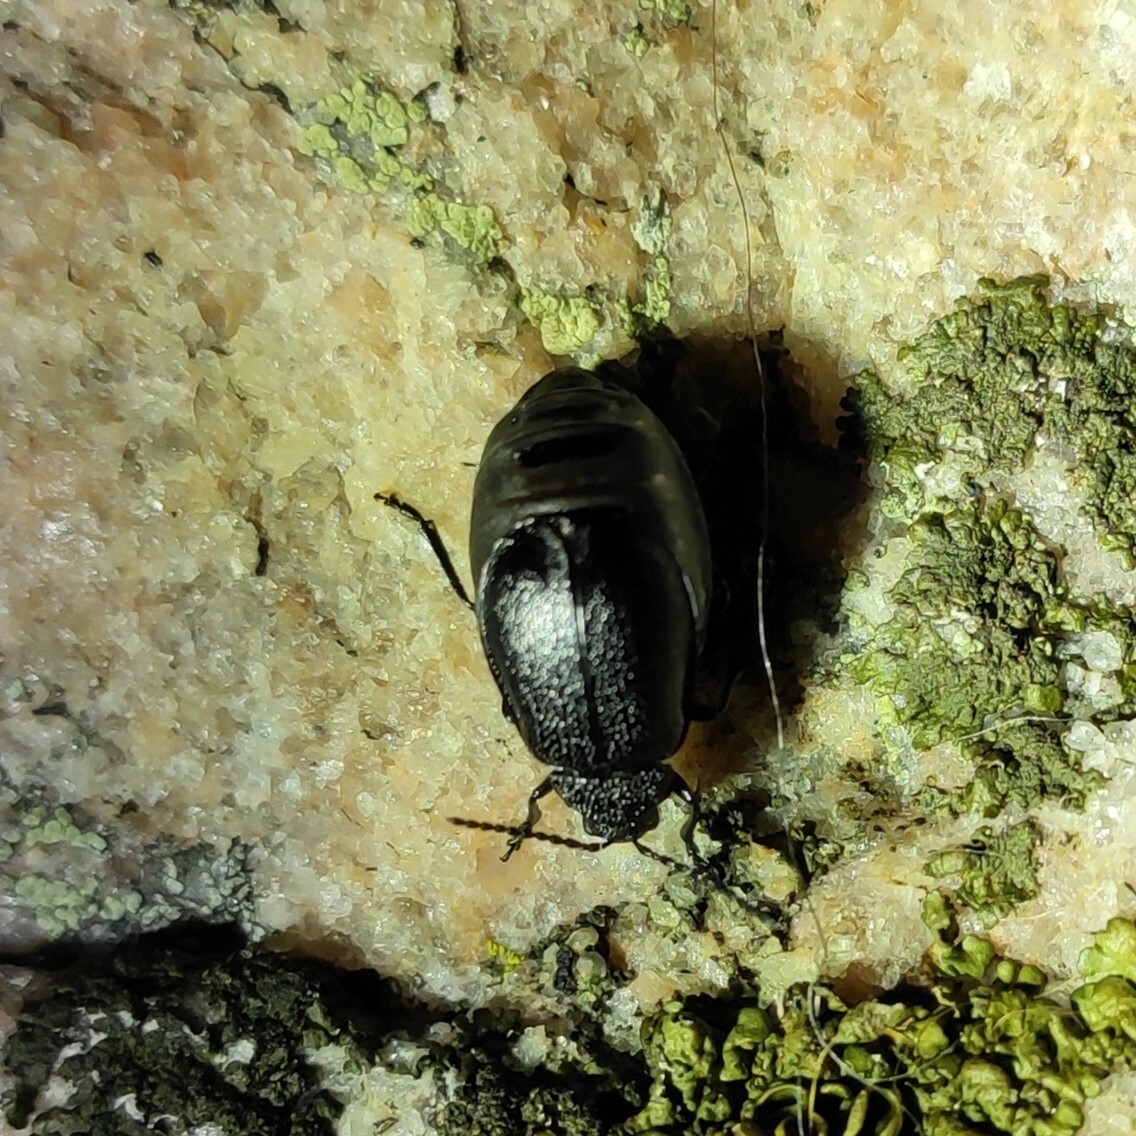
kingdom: Animalia
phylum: Arthropoda
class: Insecta
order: Coleoptera
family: Chrysomelidae
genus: Galeruca
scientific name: Galeruca tanaceti
